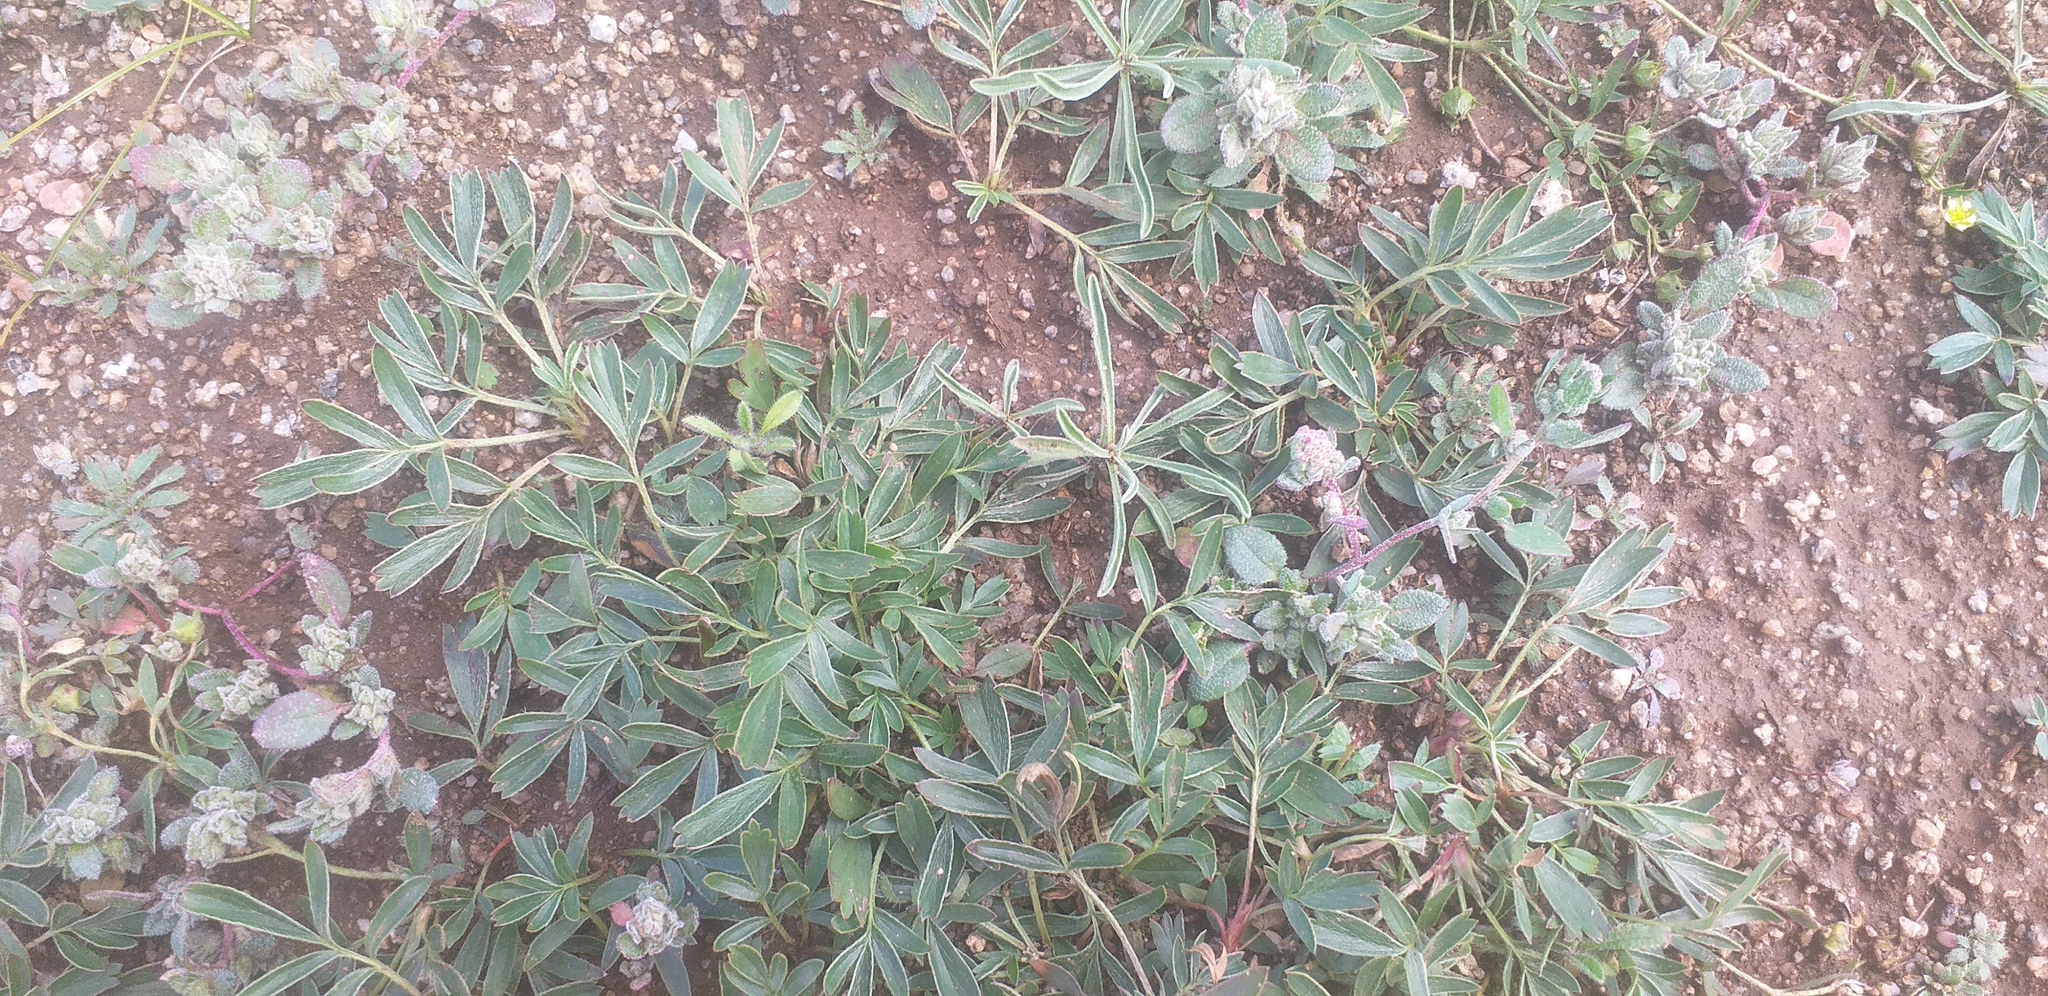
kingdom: Plantae
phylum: Tracheophyta
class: Magnoliopsida
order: Rosales
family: Rosaceae
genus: Sibbaldianthe
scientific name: Sibbaldianthe adpressa
